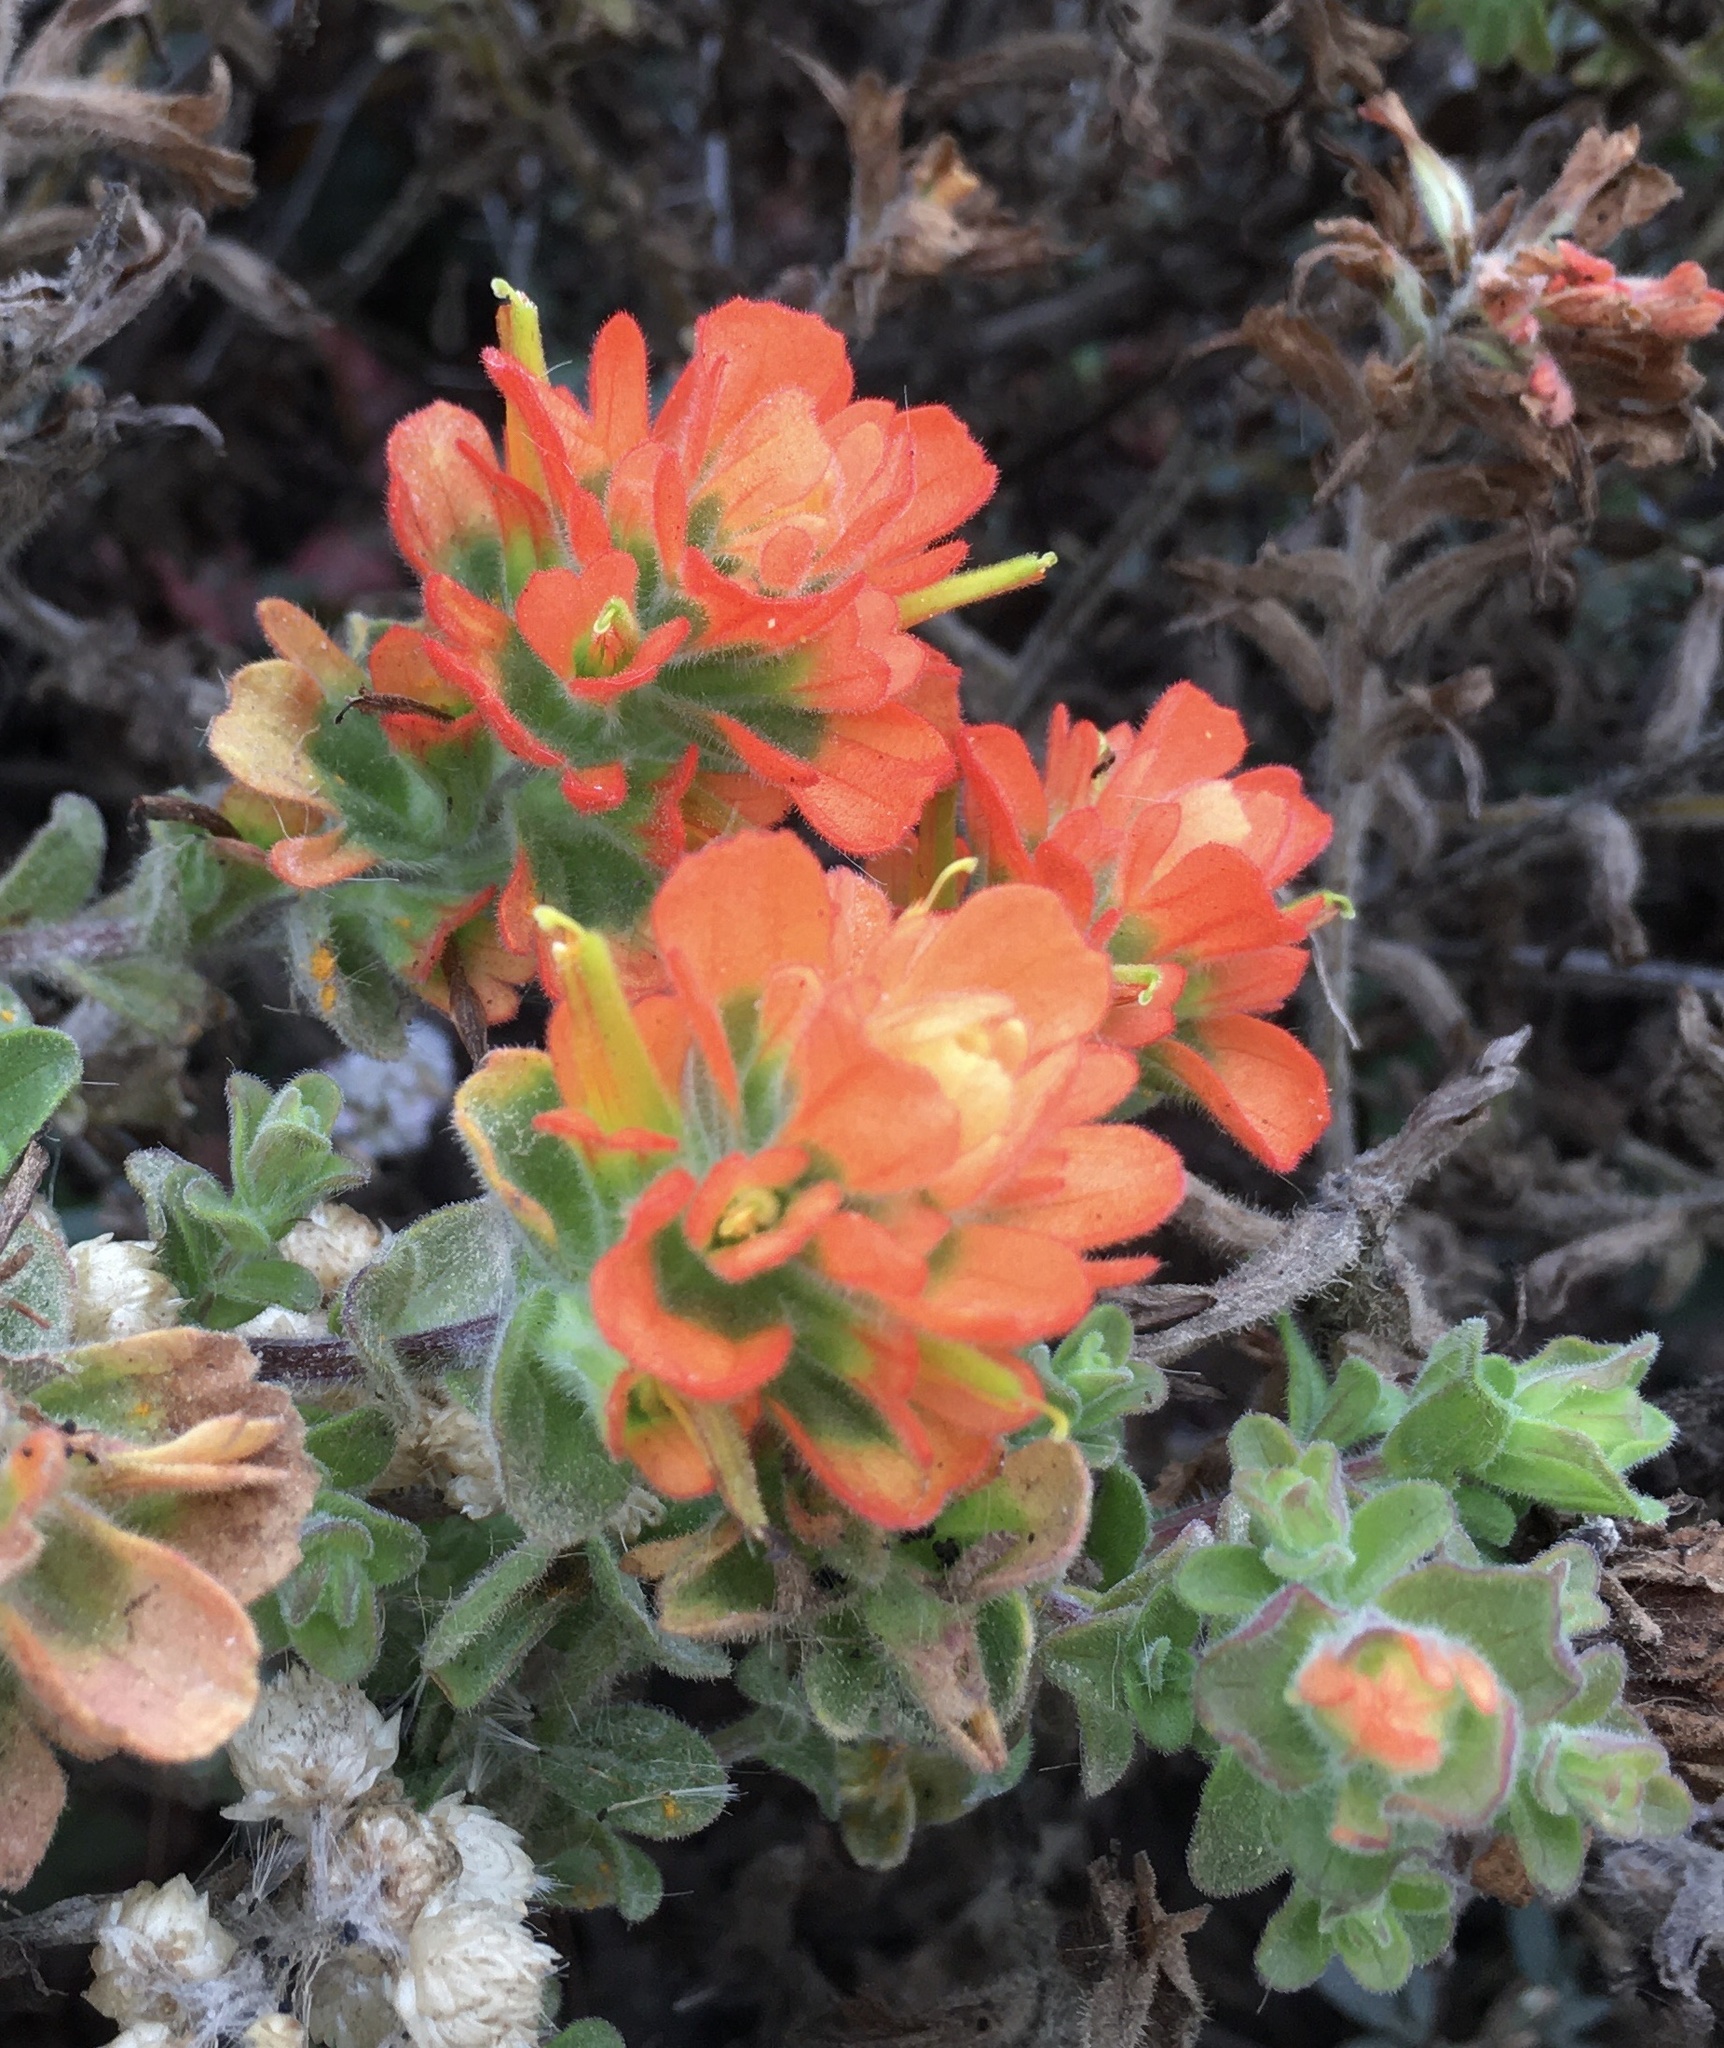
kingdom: Plantae
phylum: Tracheophyta
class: Magnoliopsida
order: Lamiales
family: Orobanchaceae
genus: Castilleja
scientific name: Castilleja latifolia
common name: Monterey indian paintbrush
